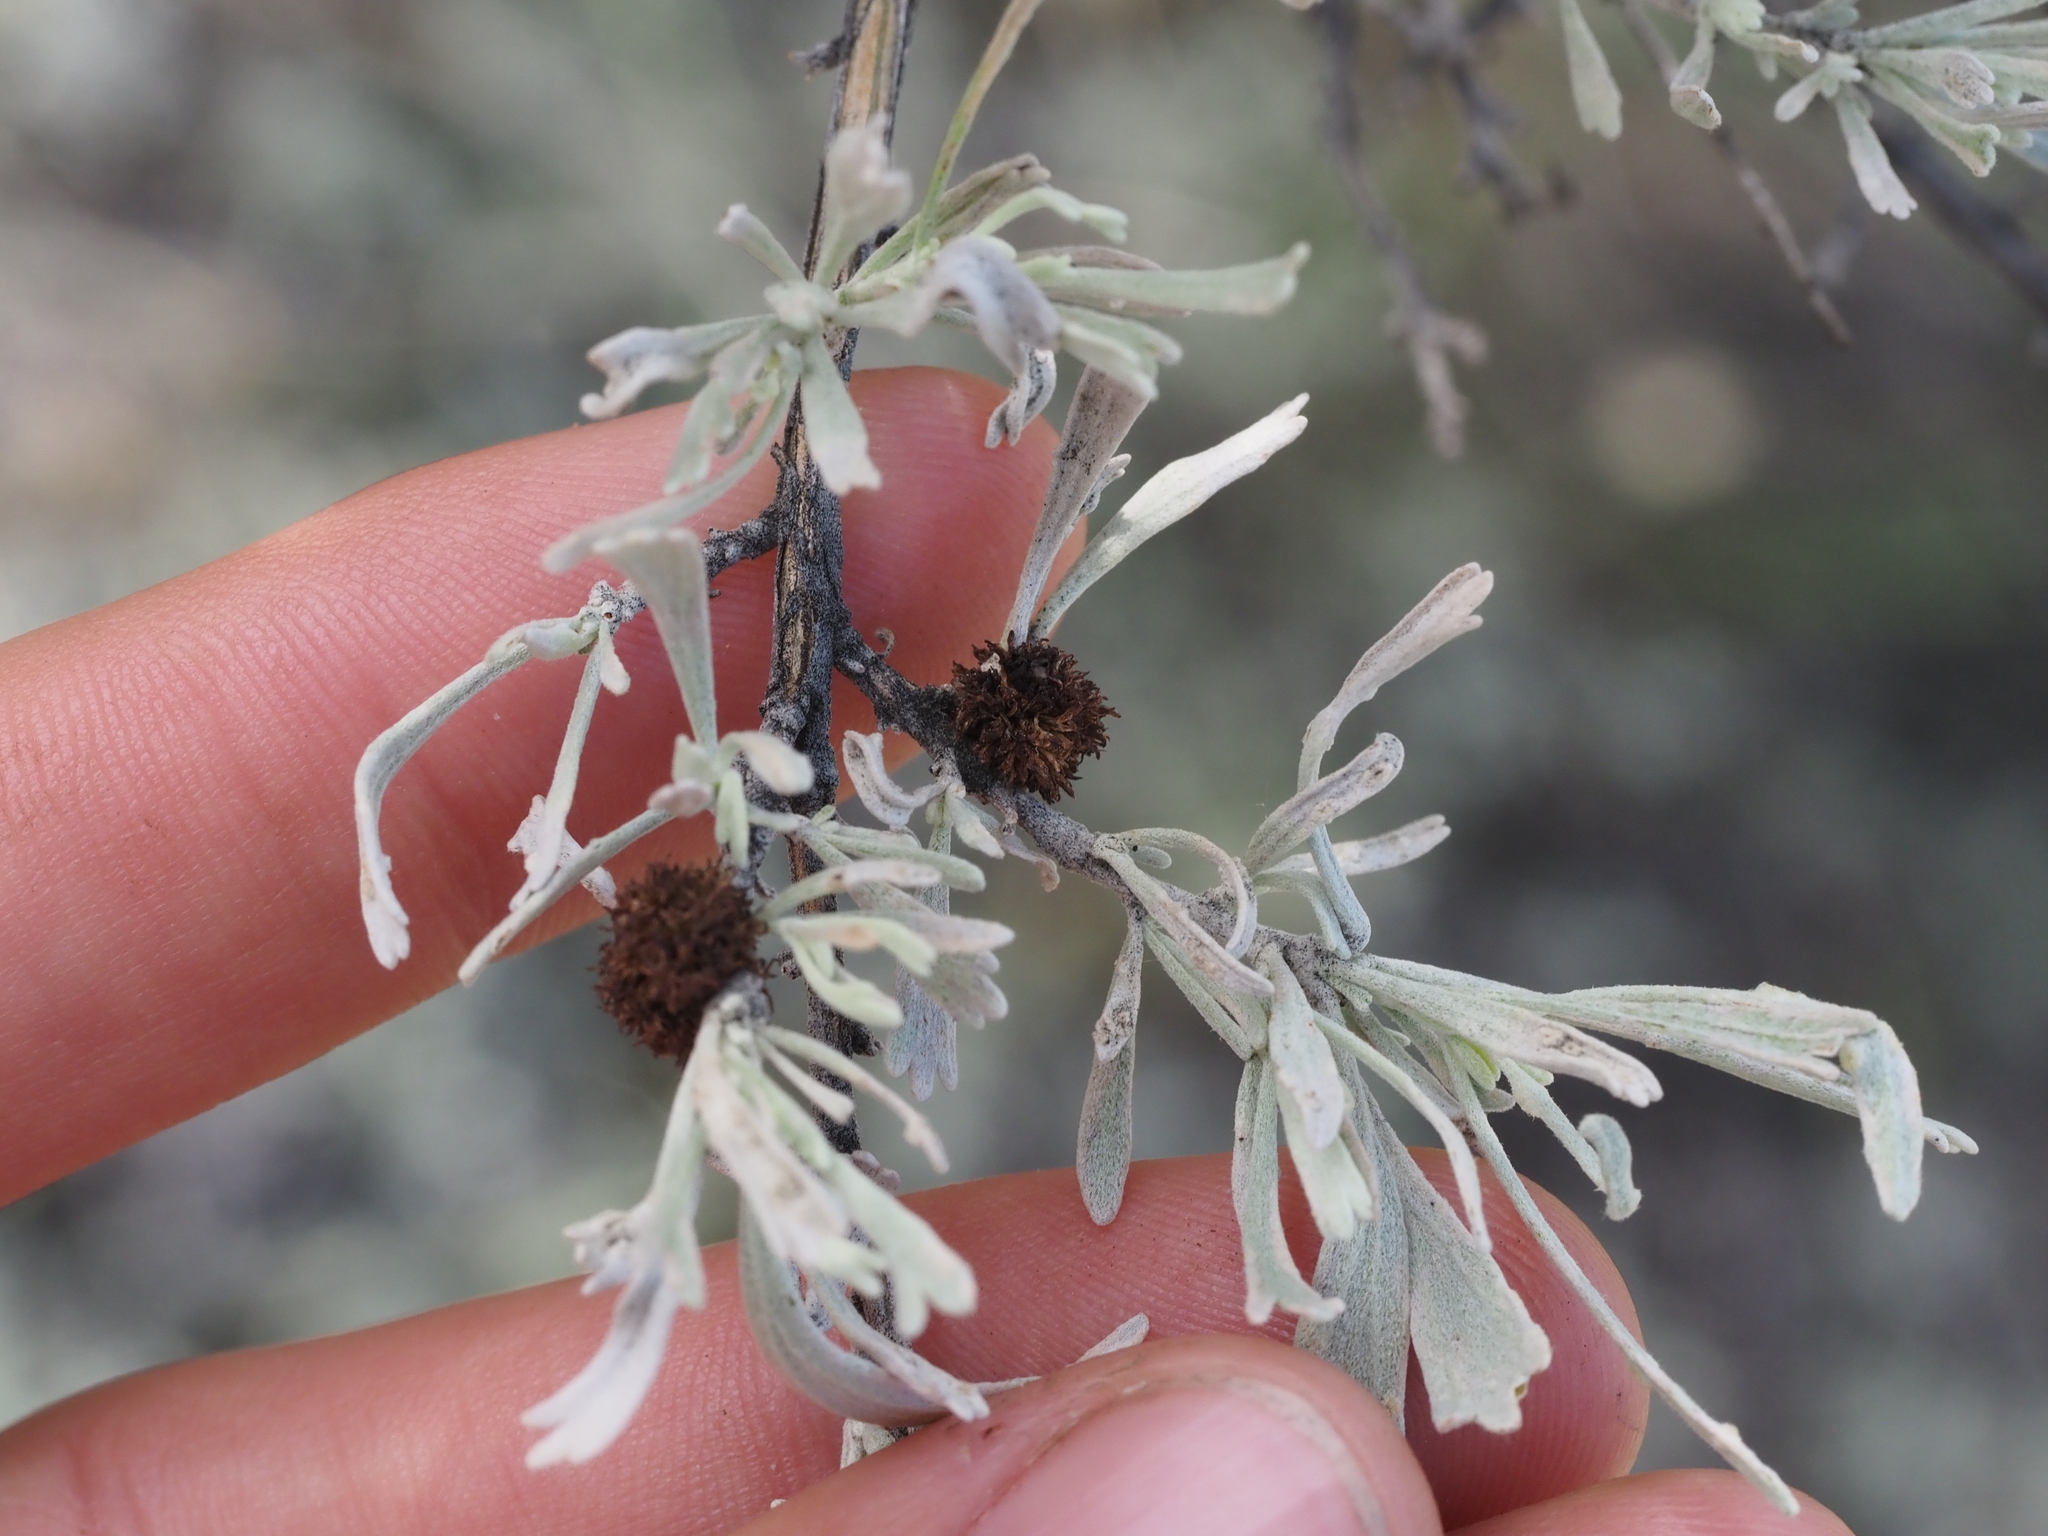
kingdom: Animalia
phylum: Arthropoda
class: Insecta
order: Diptera
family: Cecidomyiidae
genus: Rhopalomyia
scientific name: Rhopalomyia medusa
